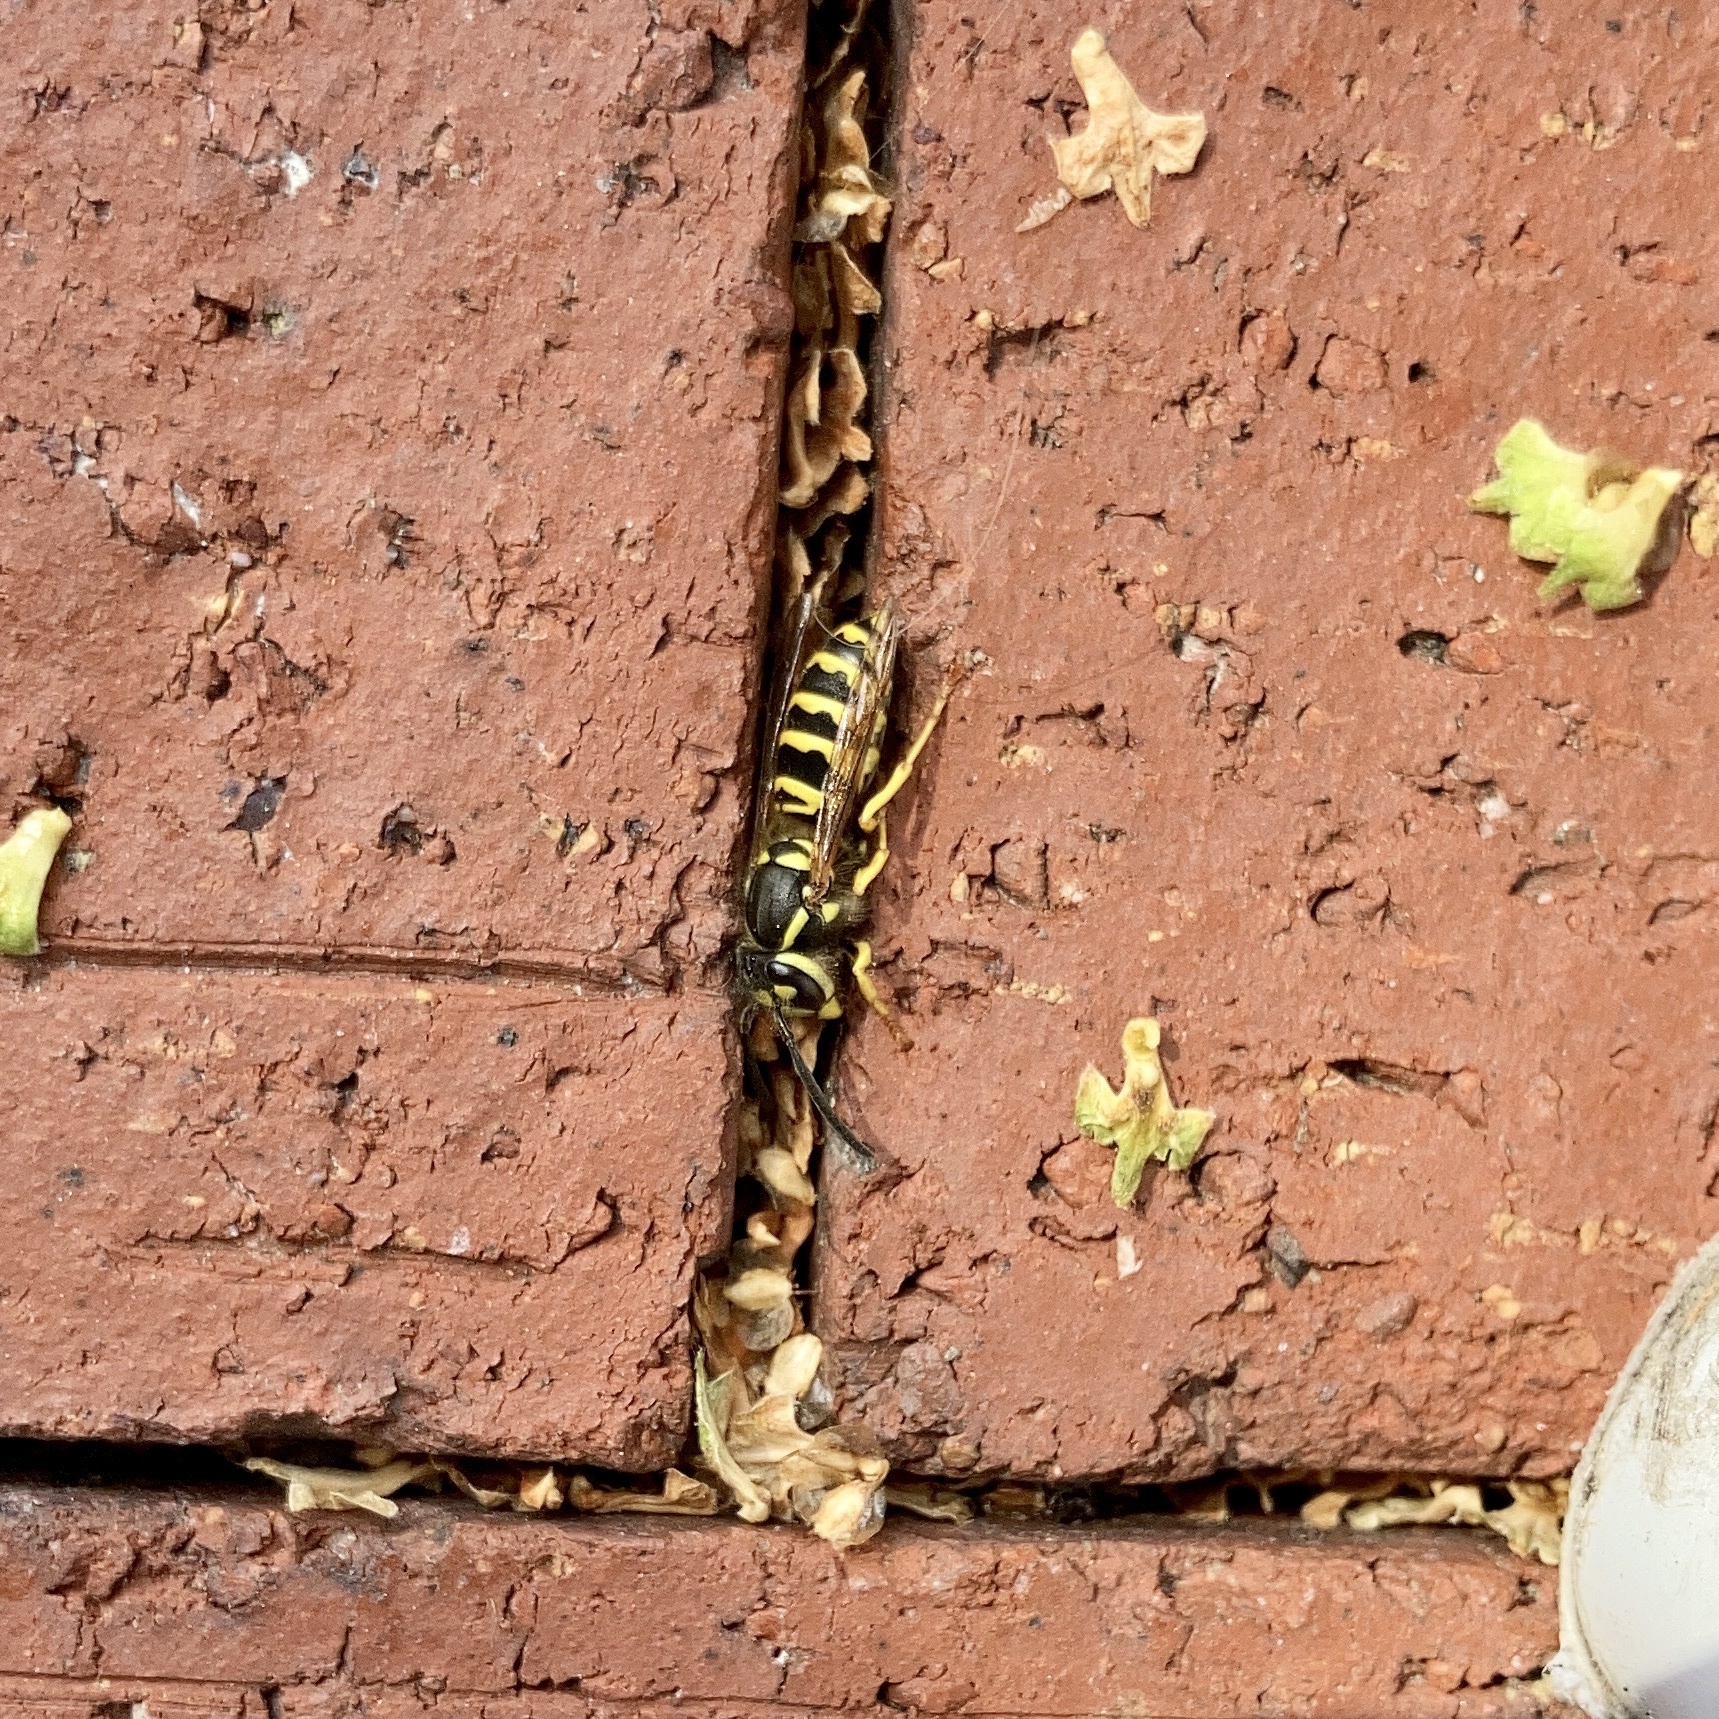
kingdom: Animalia
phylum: Arthropoda
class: Insecta
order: Hymenoptera
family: Vespidae
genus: Vespula
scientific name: Vespula maculifrons
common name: Eastern yellowjacket
